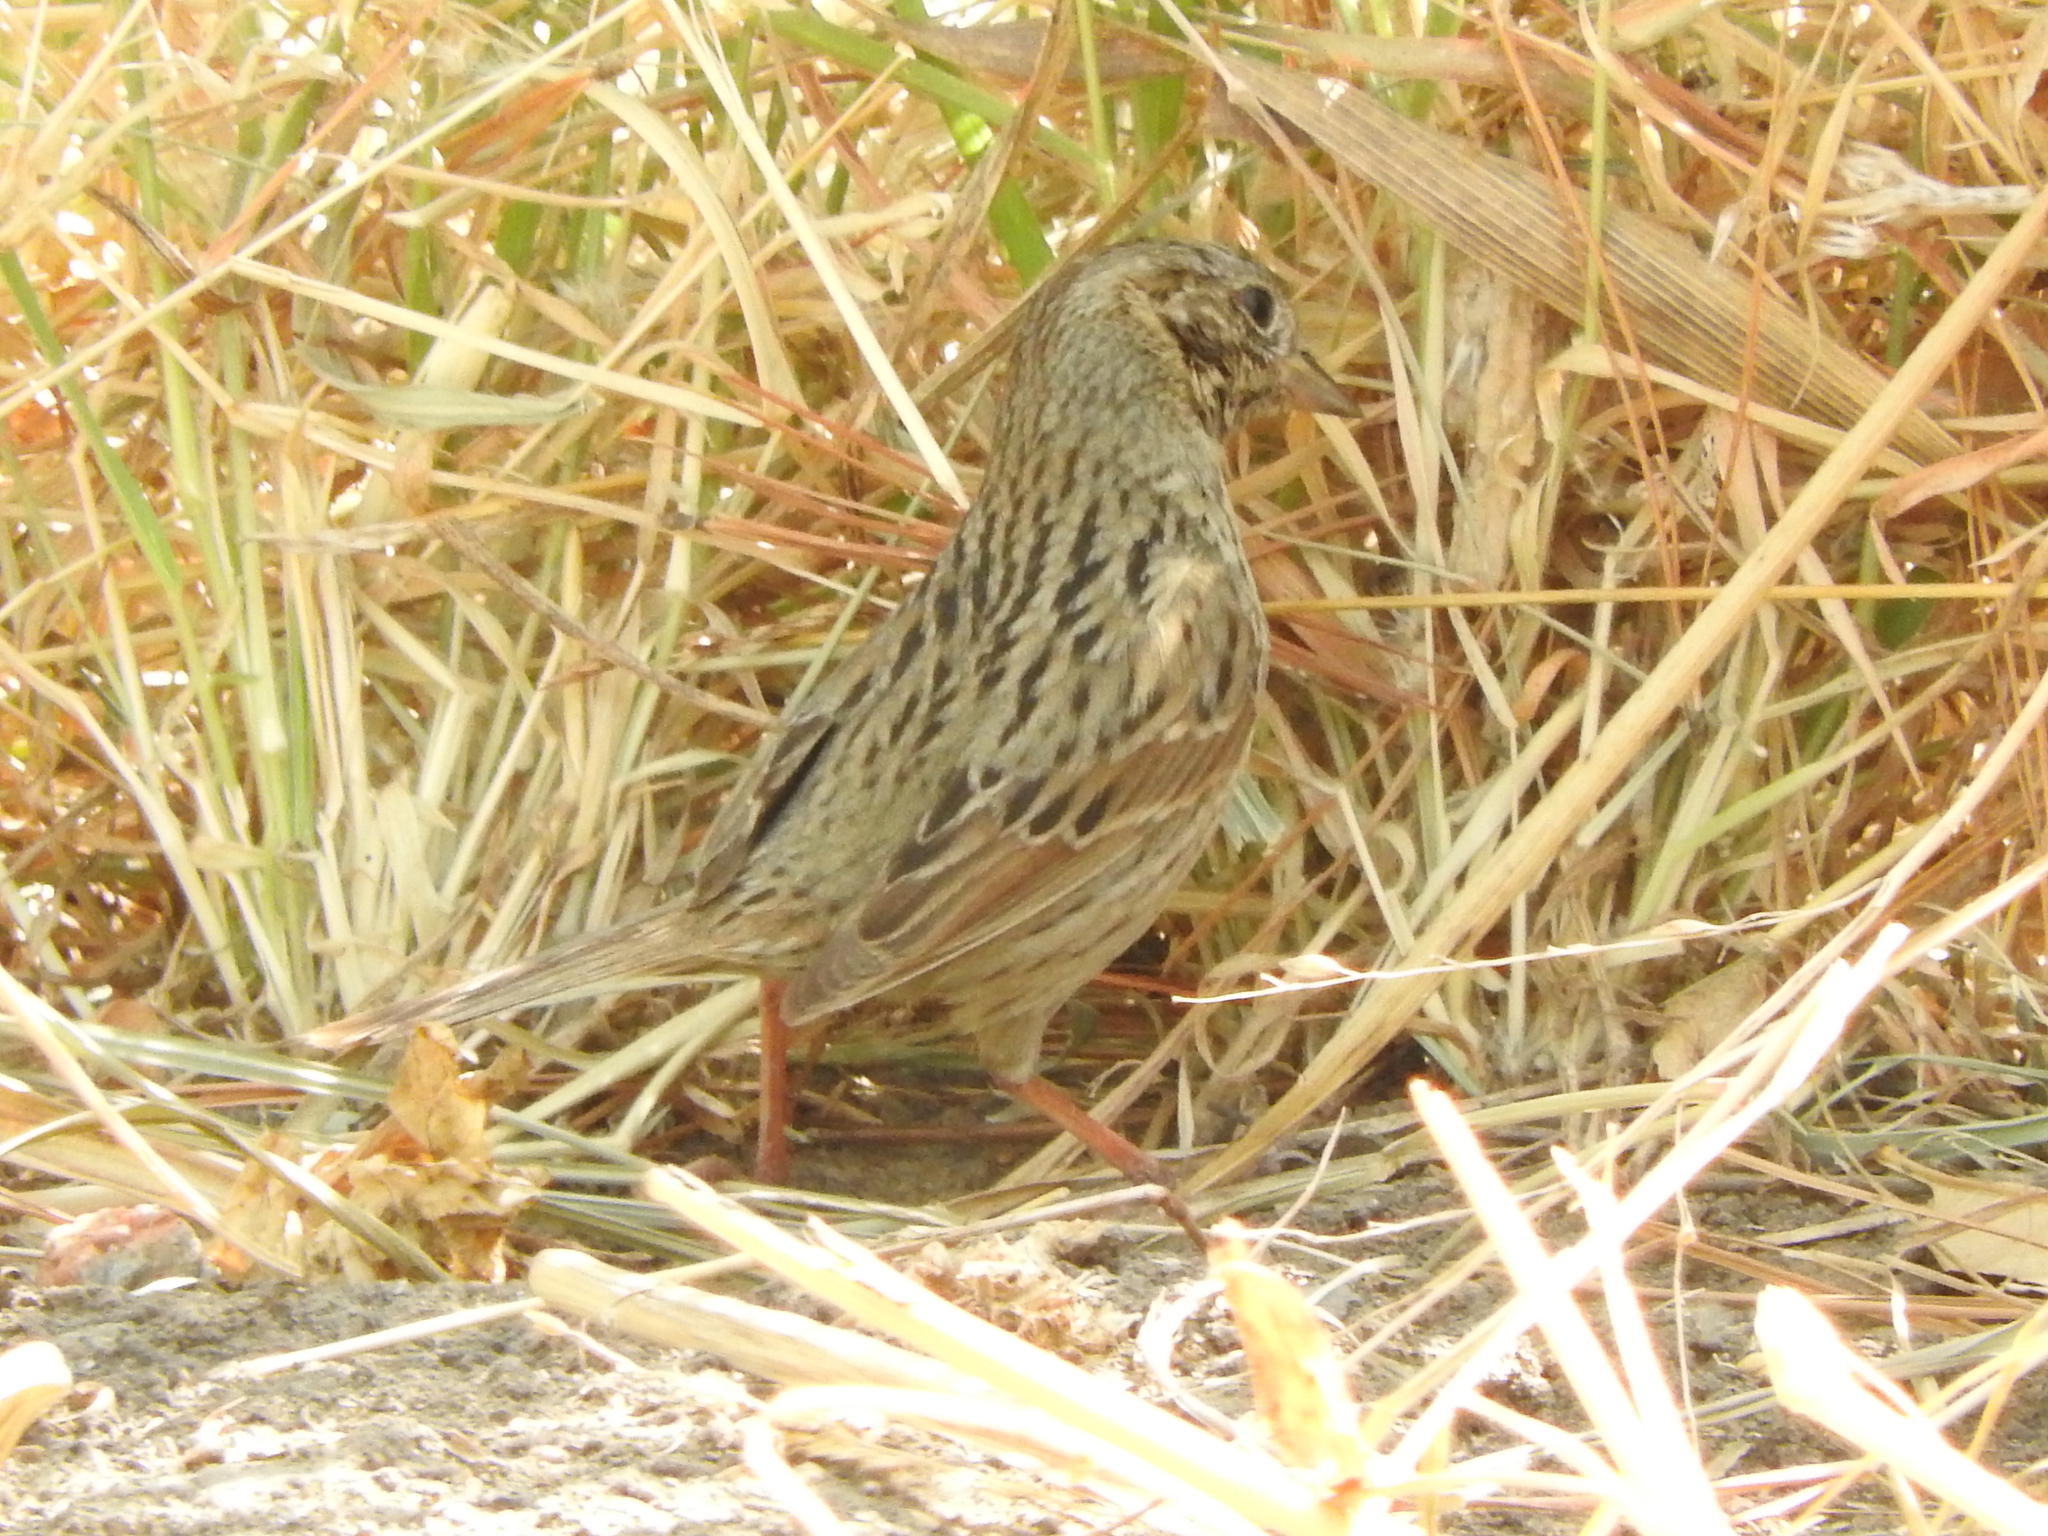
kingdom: Animalia
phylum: Chordata
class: Aves
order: Passeriformes
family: Passerellidae
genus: Melospiza
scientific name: Melospiza lincolnii
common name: Lincoln's sparrow
